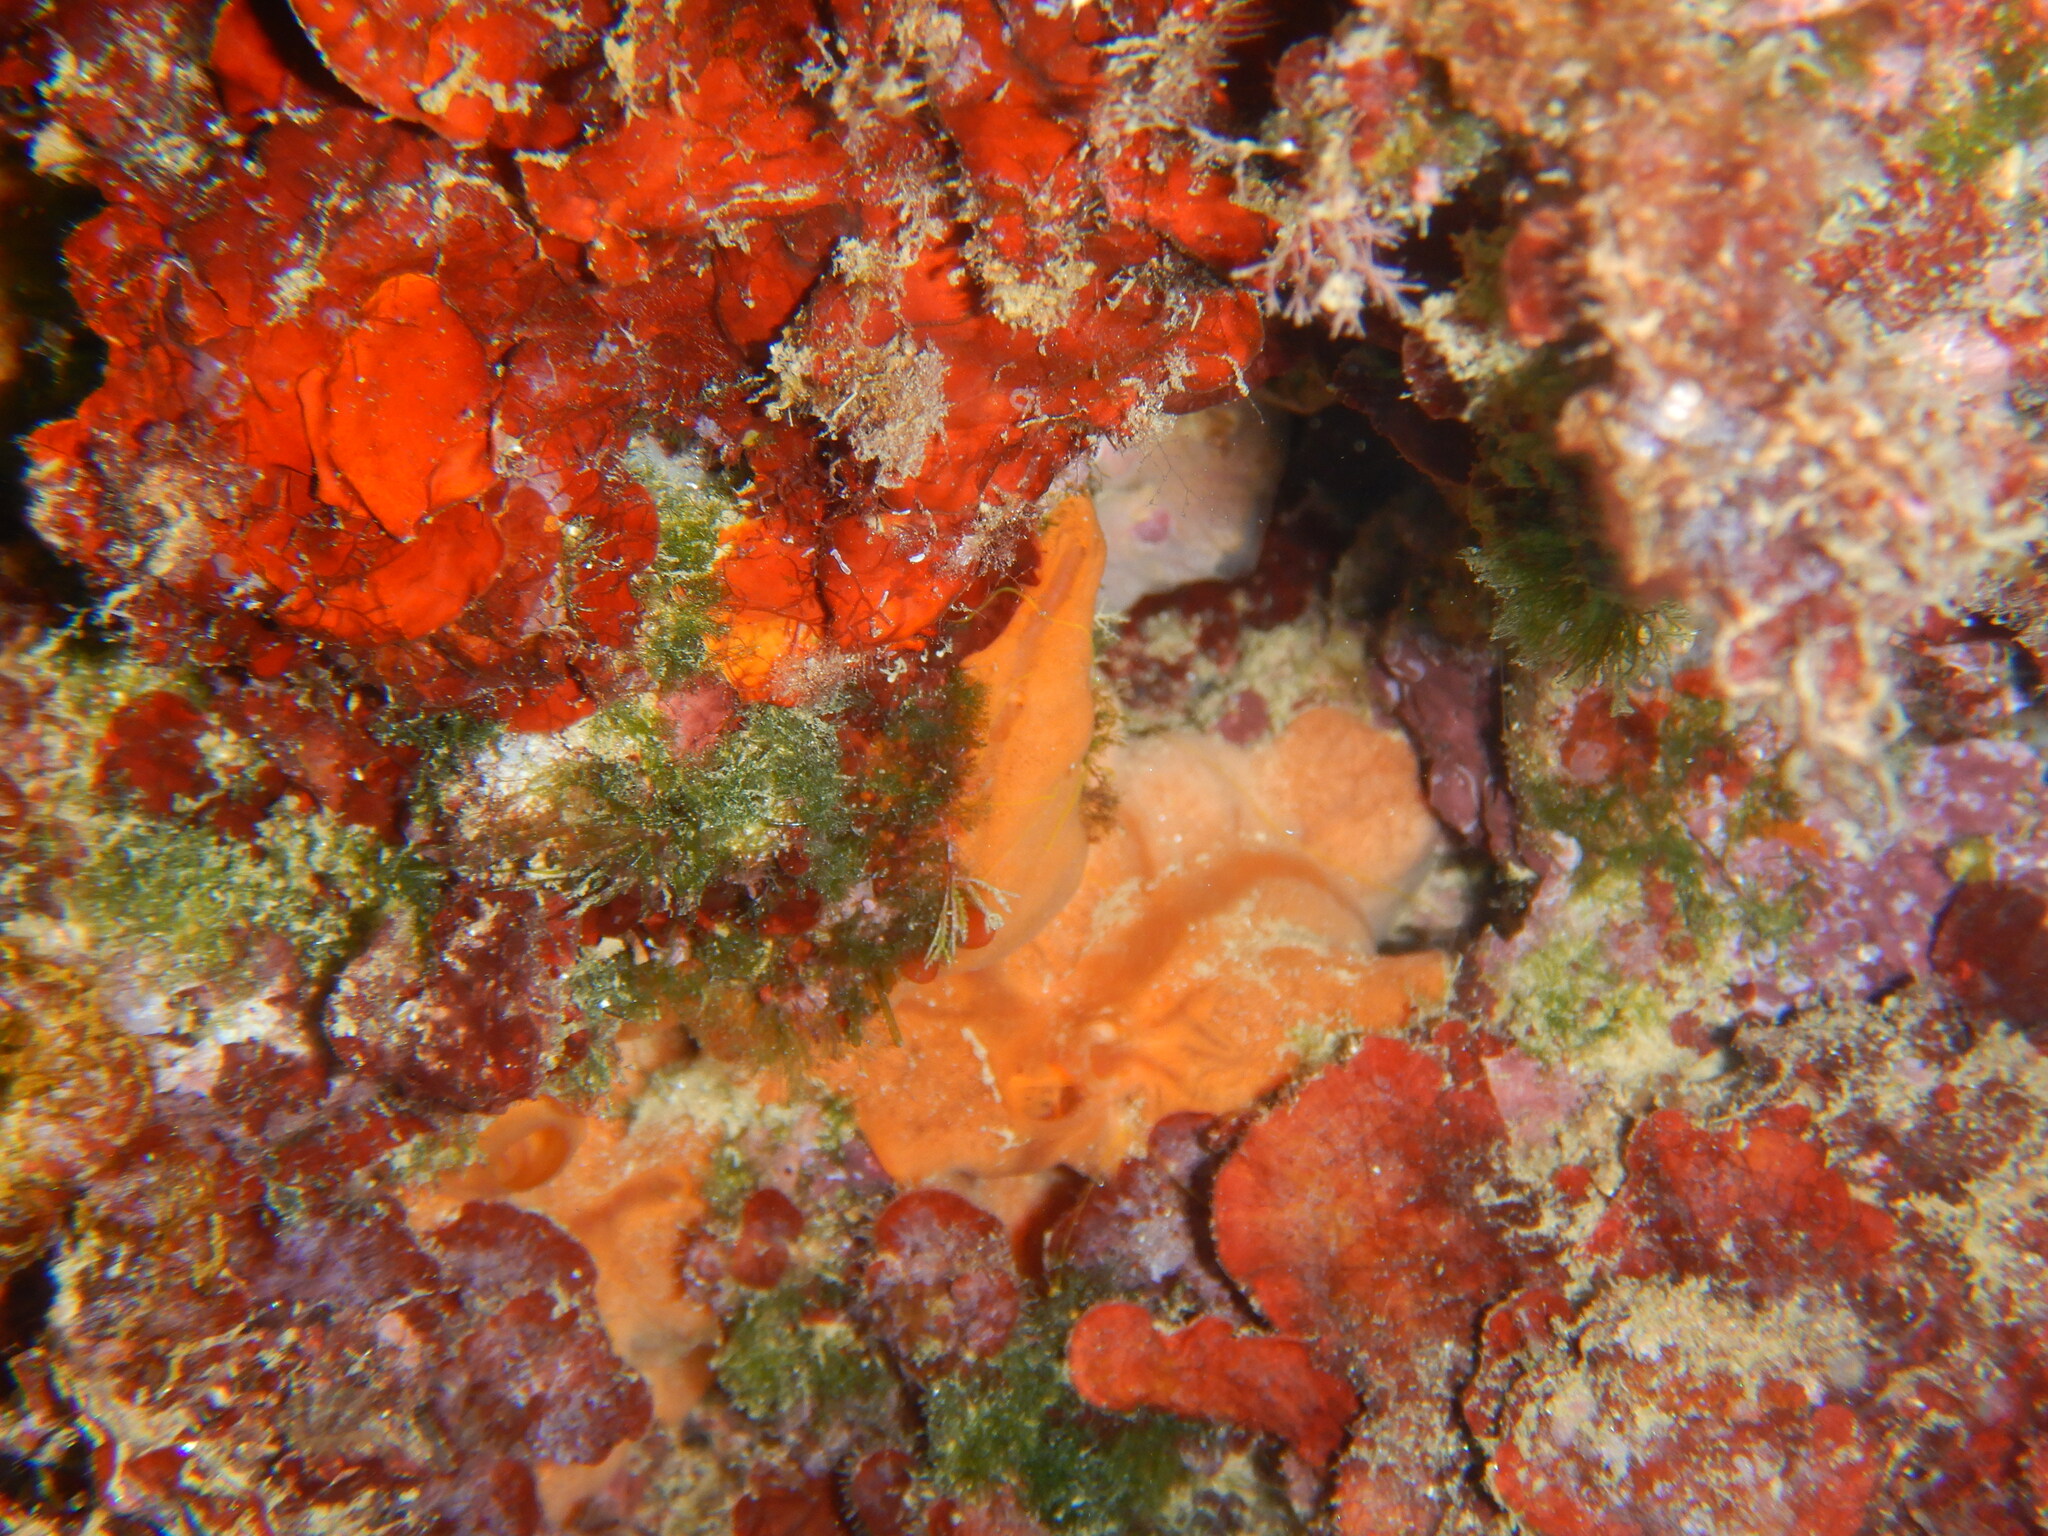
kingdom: Animalia
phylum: Porifera
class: Demospongiae
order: Poecilosclerida
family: Crambeidae
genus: Crambe
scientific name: Crambe crambe
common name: Orange-red encrusting sponge
